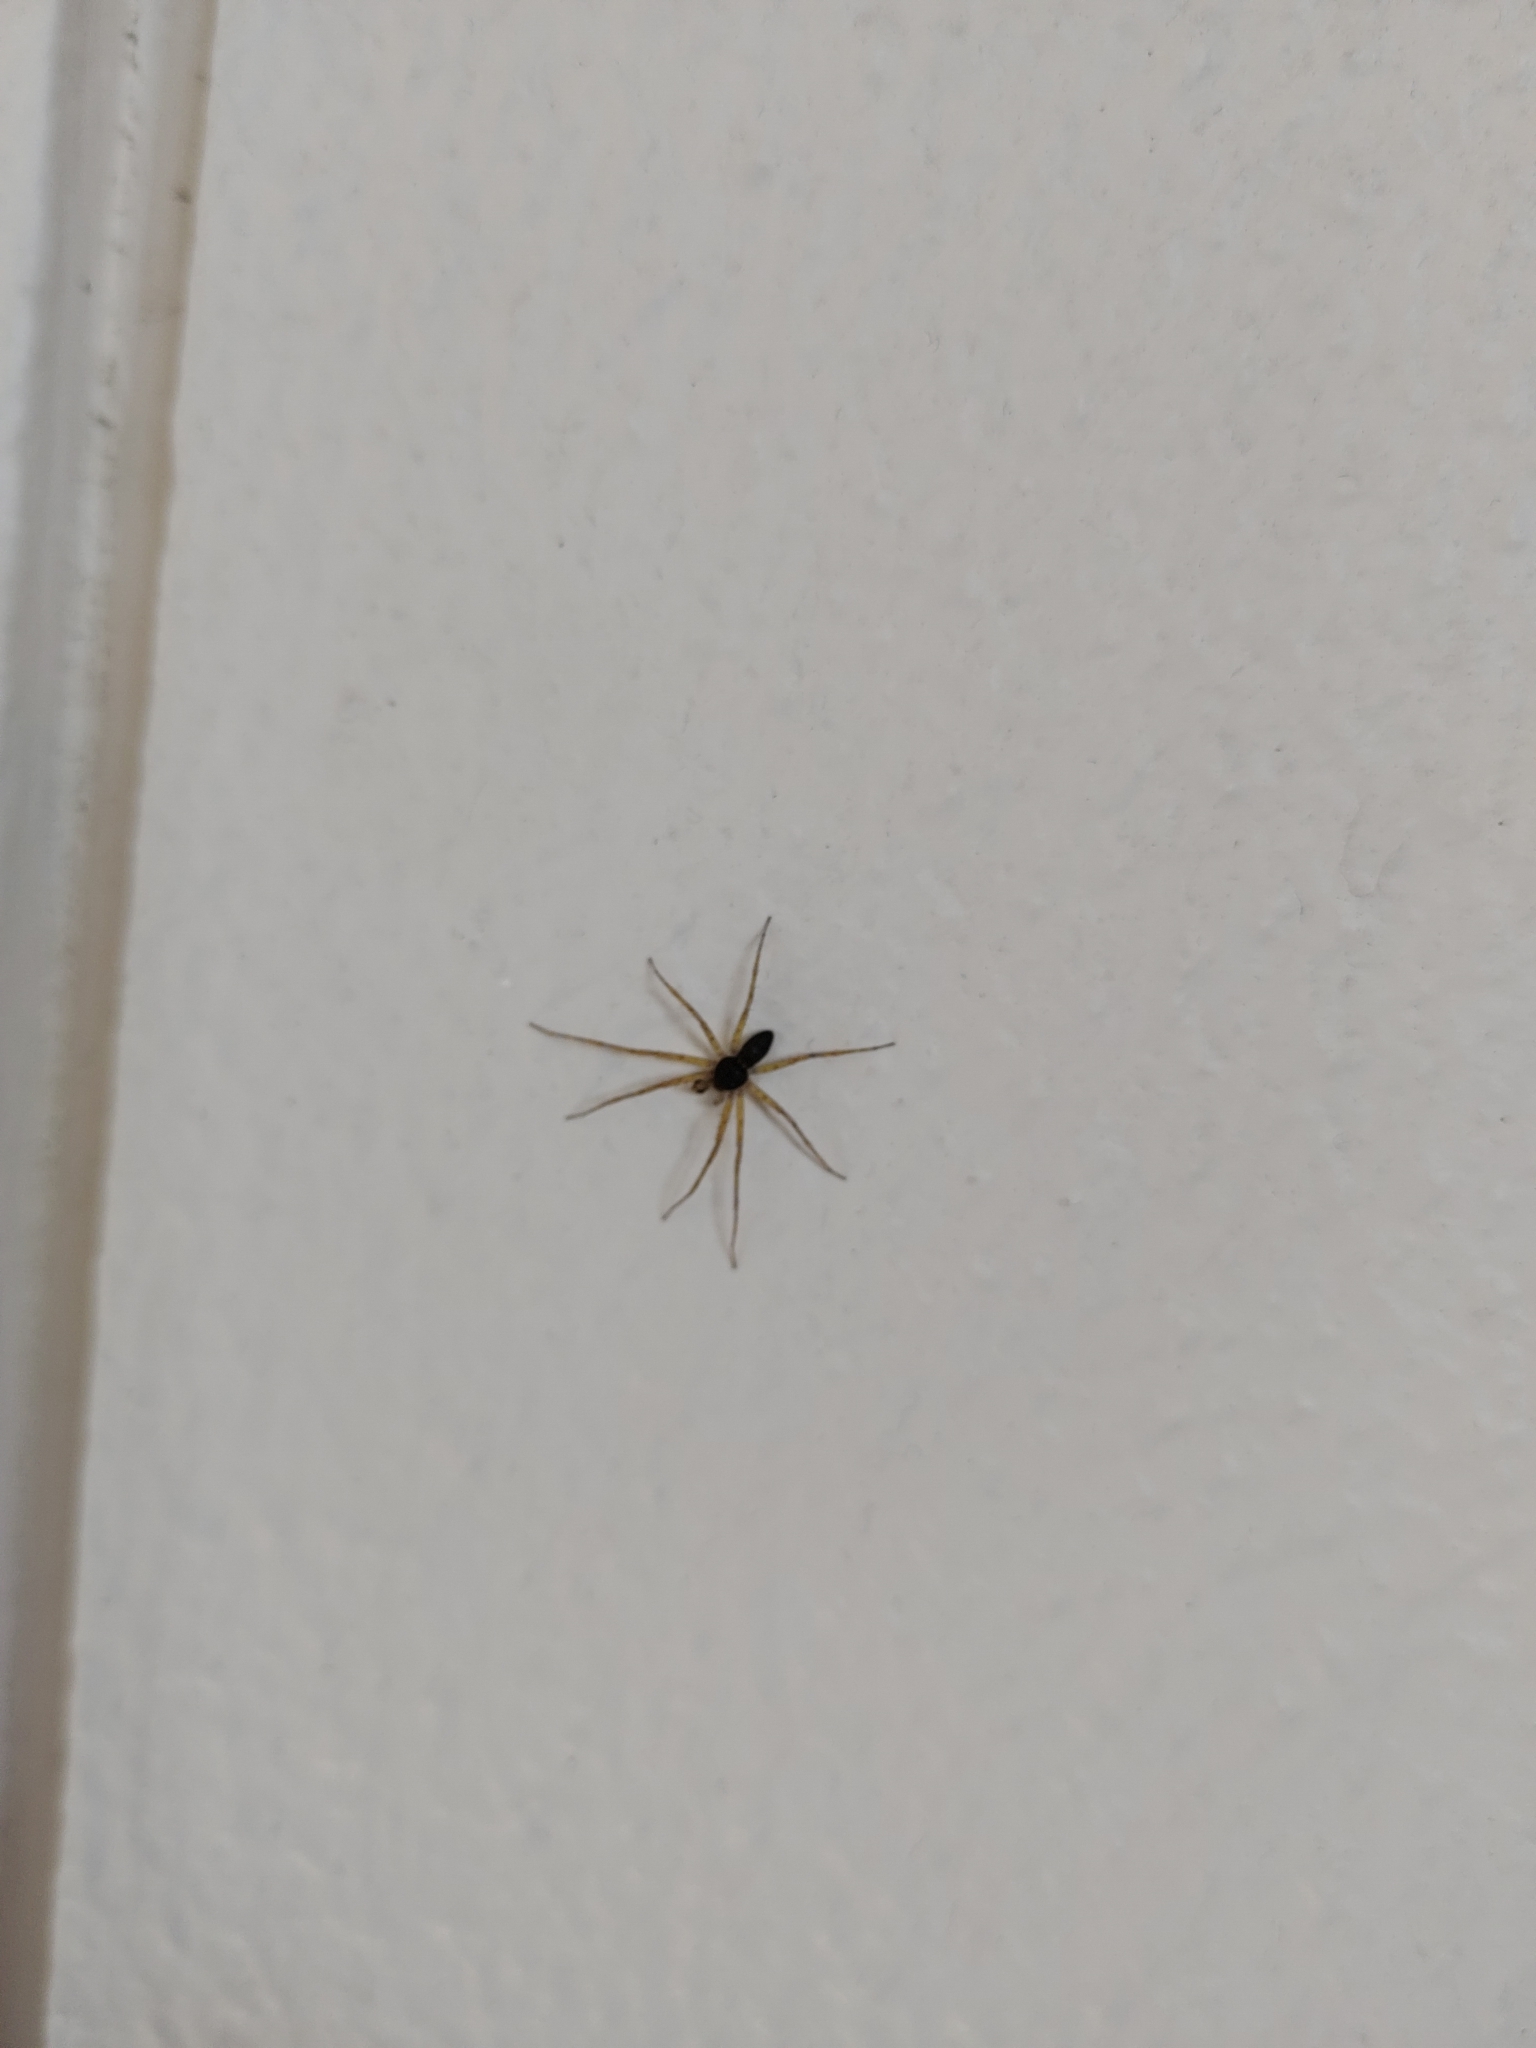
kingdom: Animalia
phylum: Arthropoda
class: Arachnida
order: Araneae
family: Philodromidae
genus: Philodromus
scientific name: Philodromus dispar
